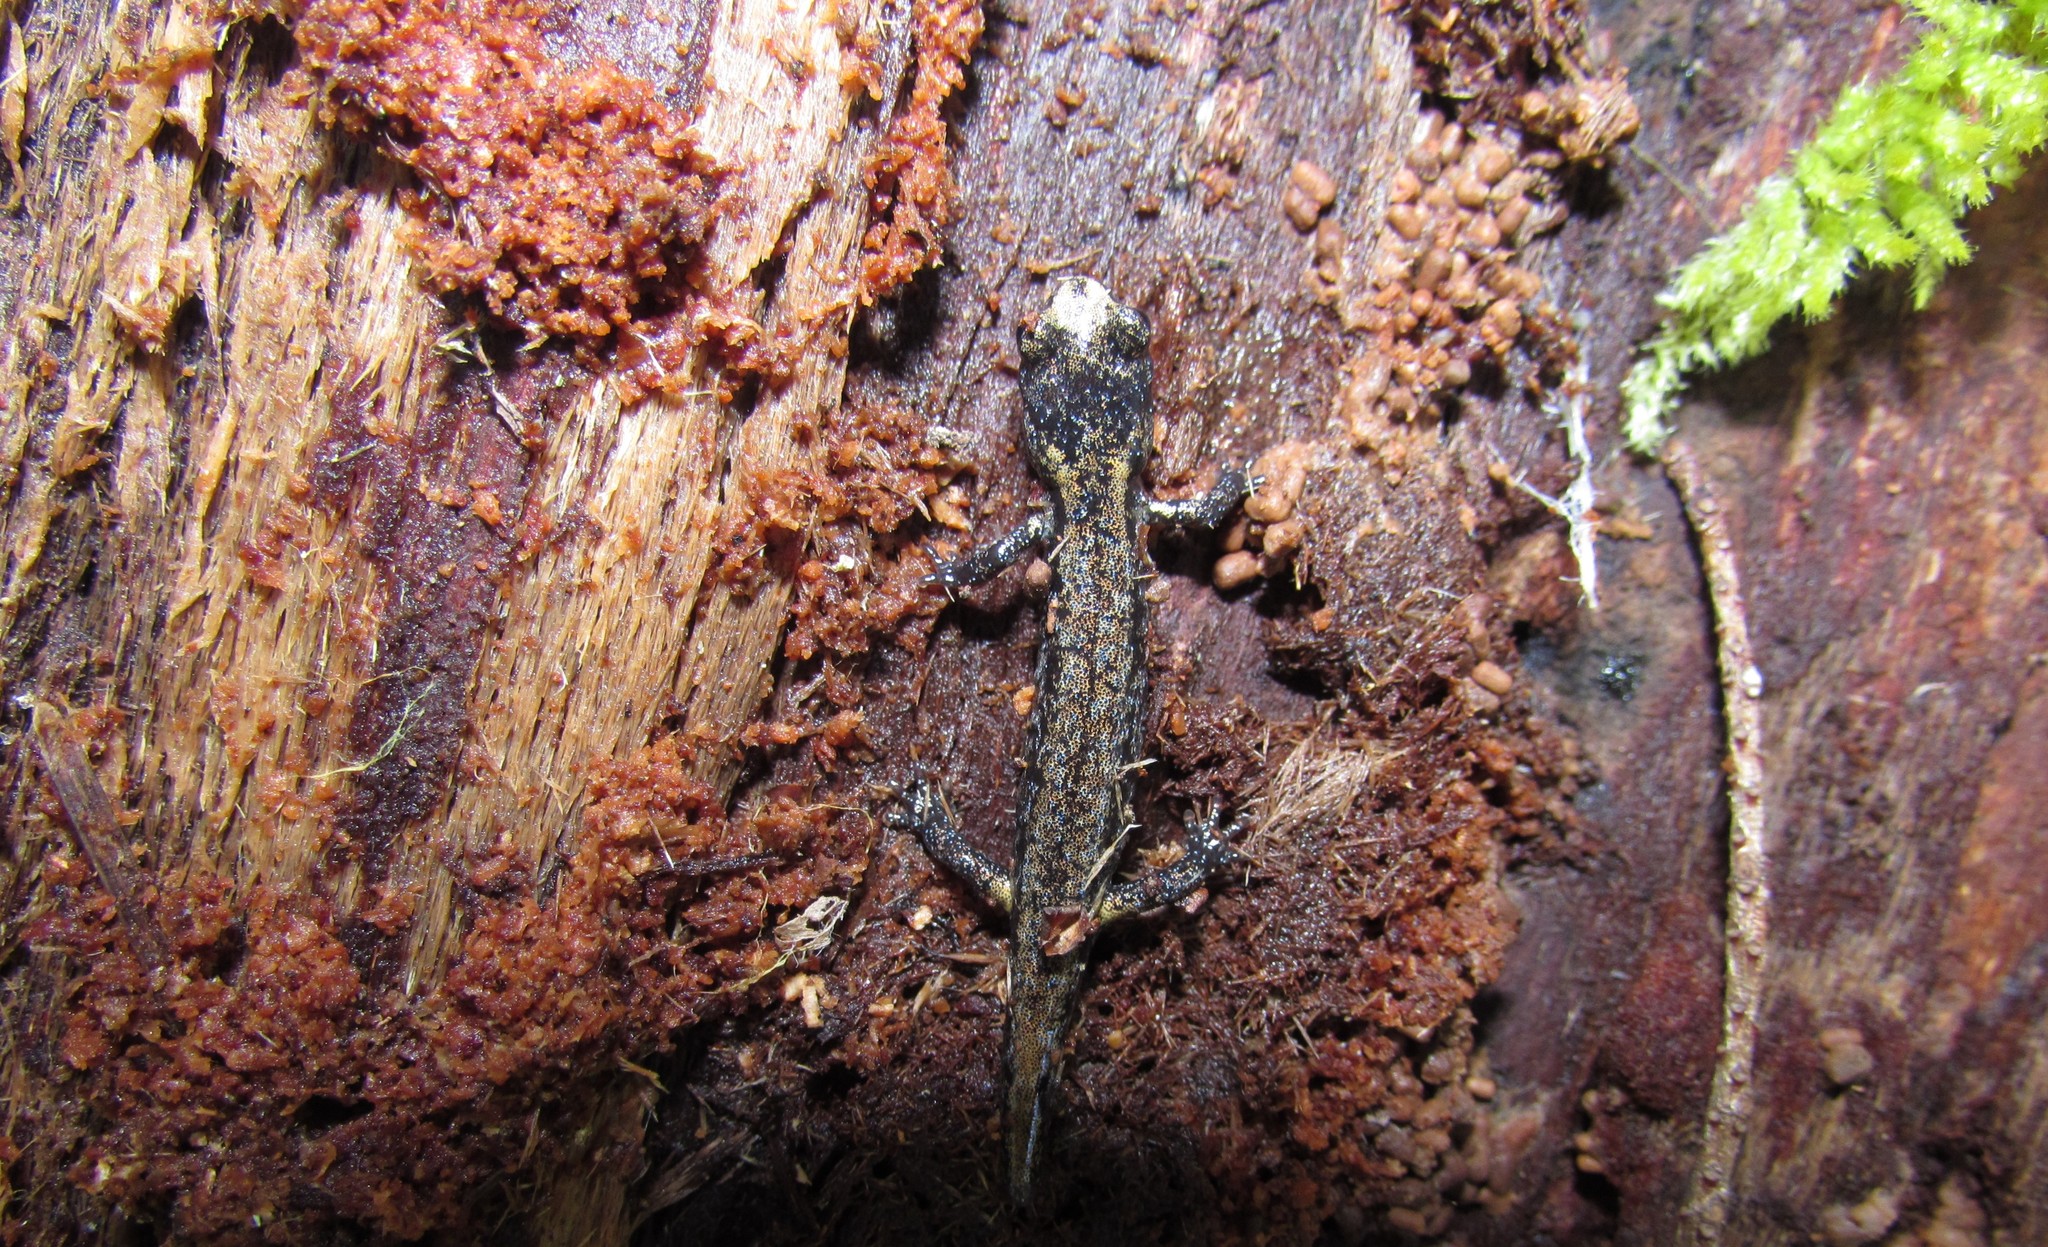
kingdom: Animalia
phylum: Chordata
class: Amphibia
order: Caudata
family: Plethodontidae
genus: Aneides
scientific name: Aneides ferreus
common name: Clouded salamander
